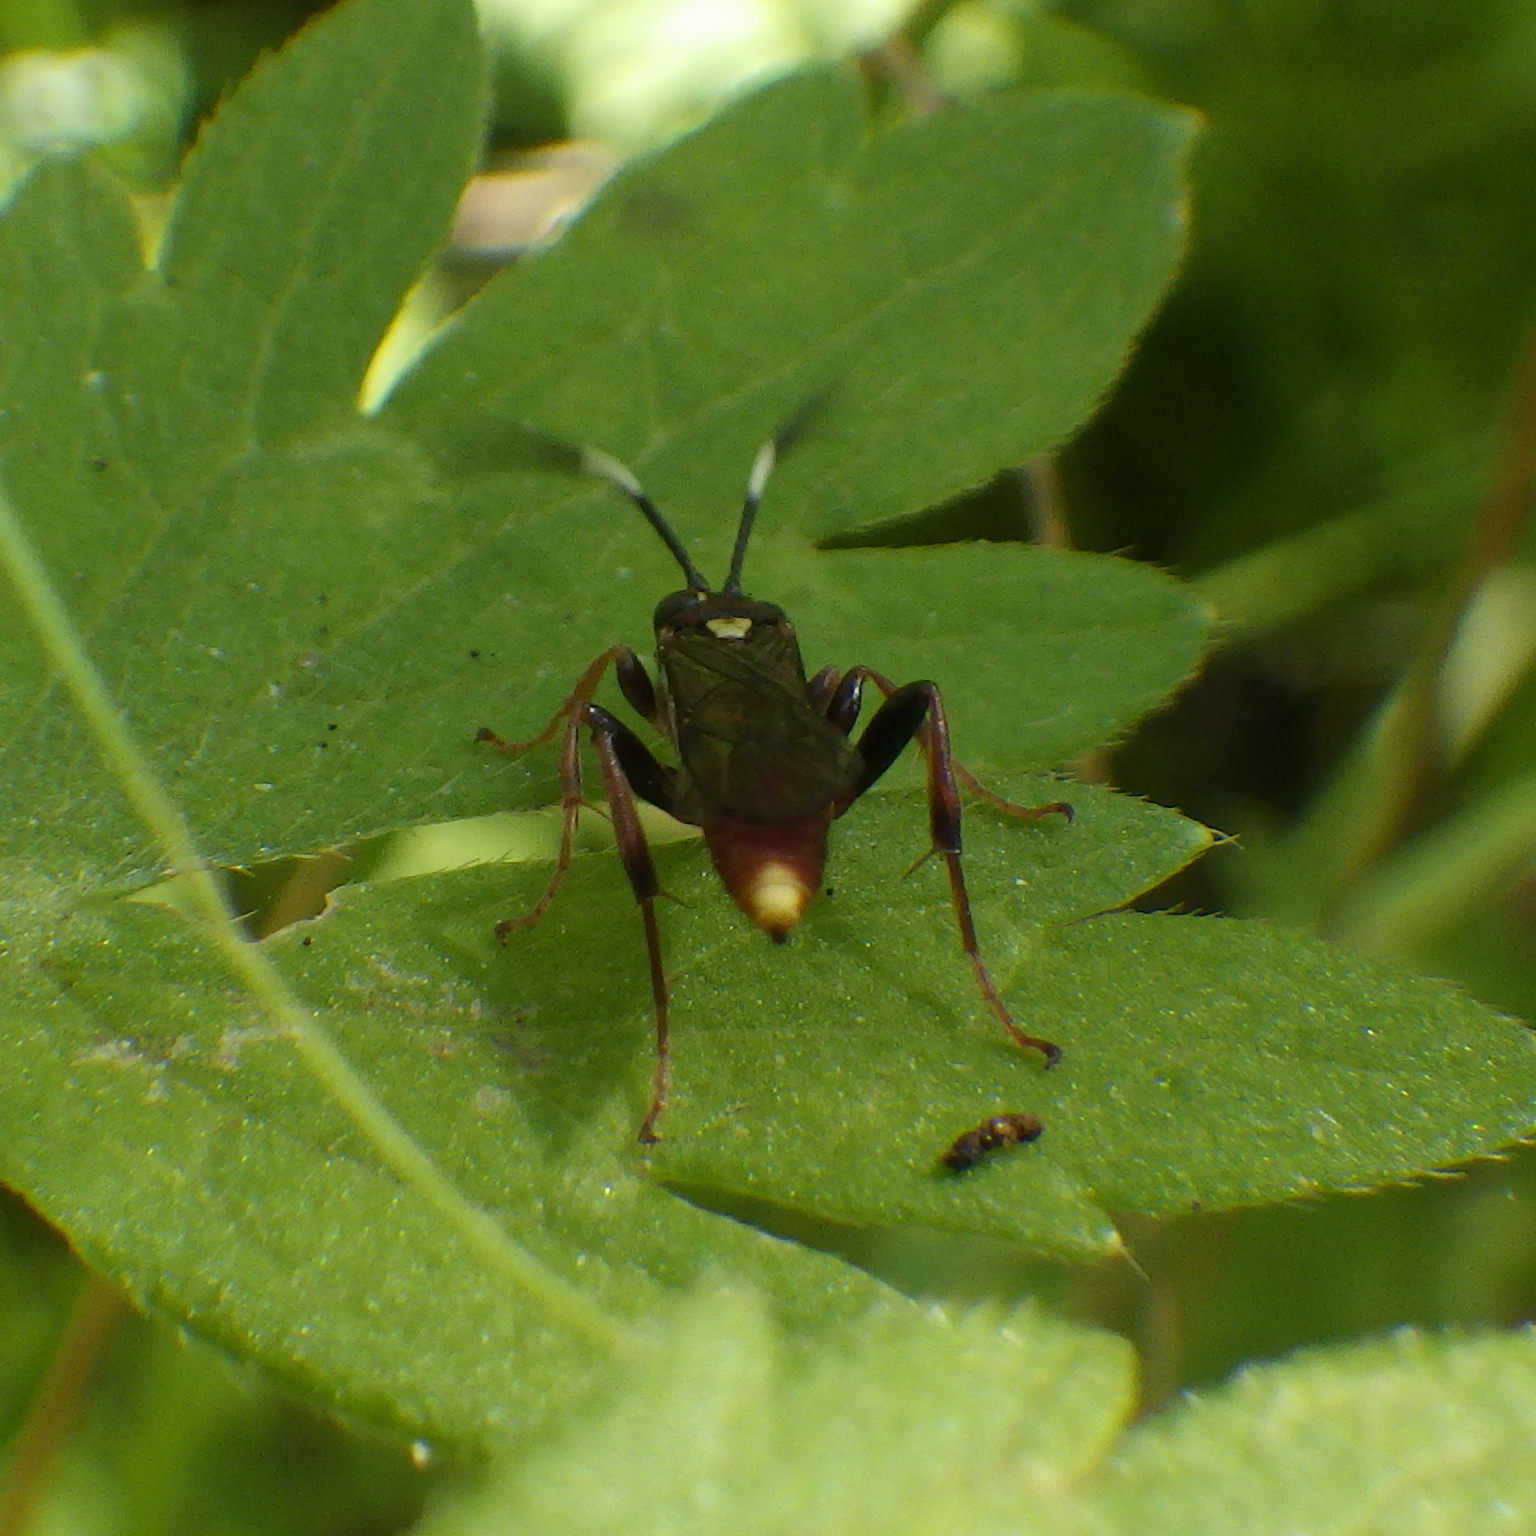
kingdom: Animalia
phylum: Arthropoda
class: Insecta
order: Hymenoptera
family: Ichneumonidae
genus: Melanichneumon
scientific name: Melanichneumon disparilis
